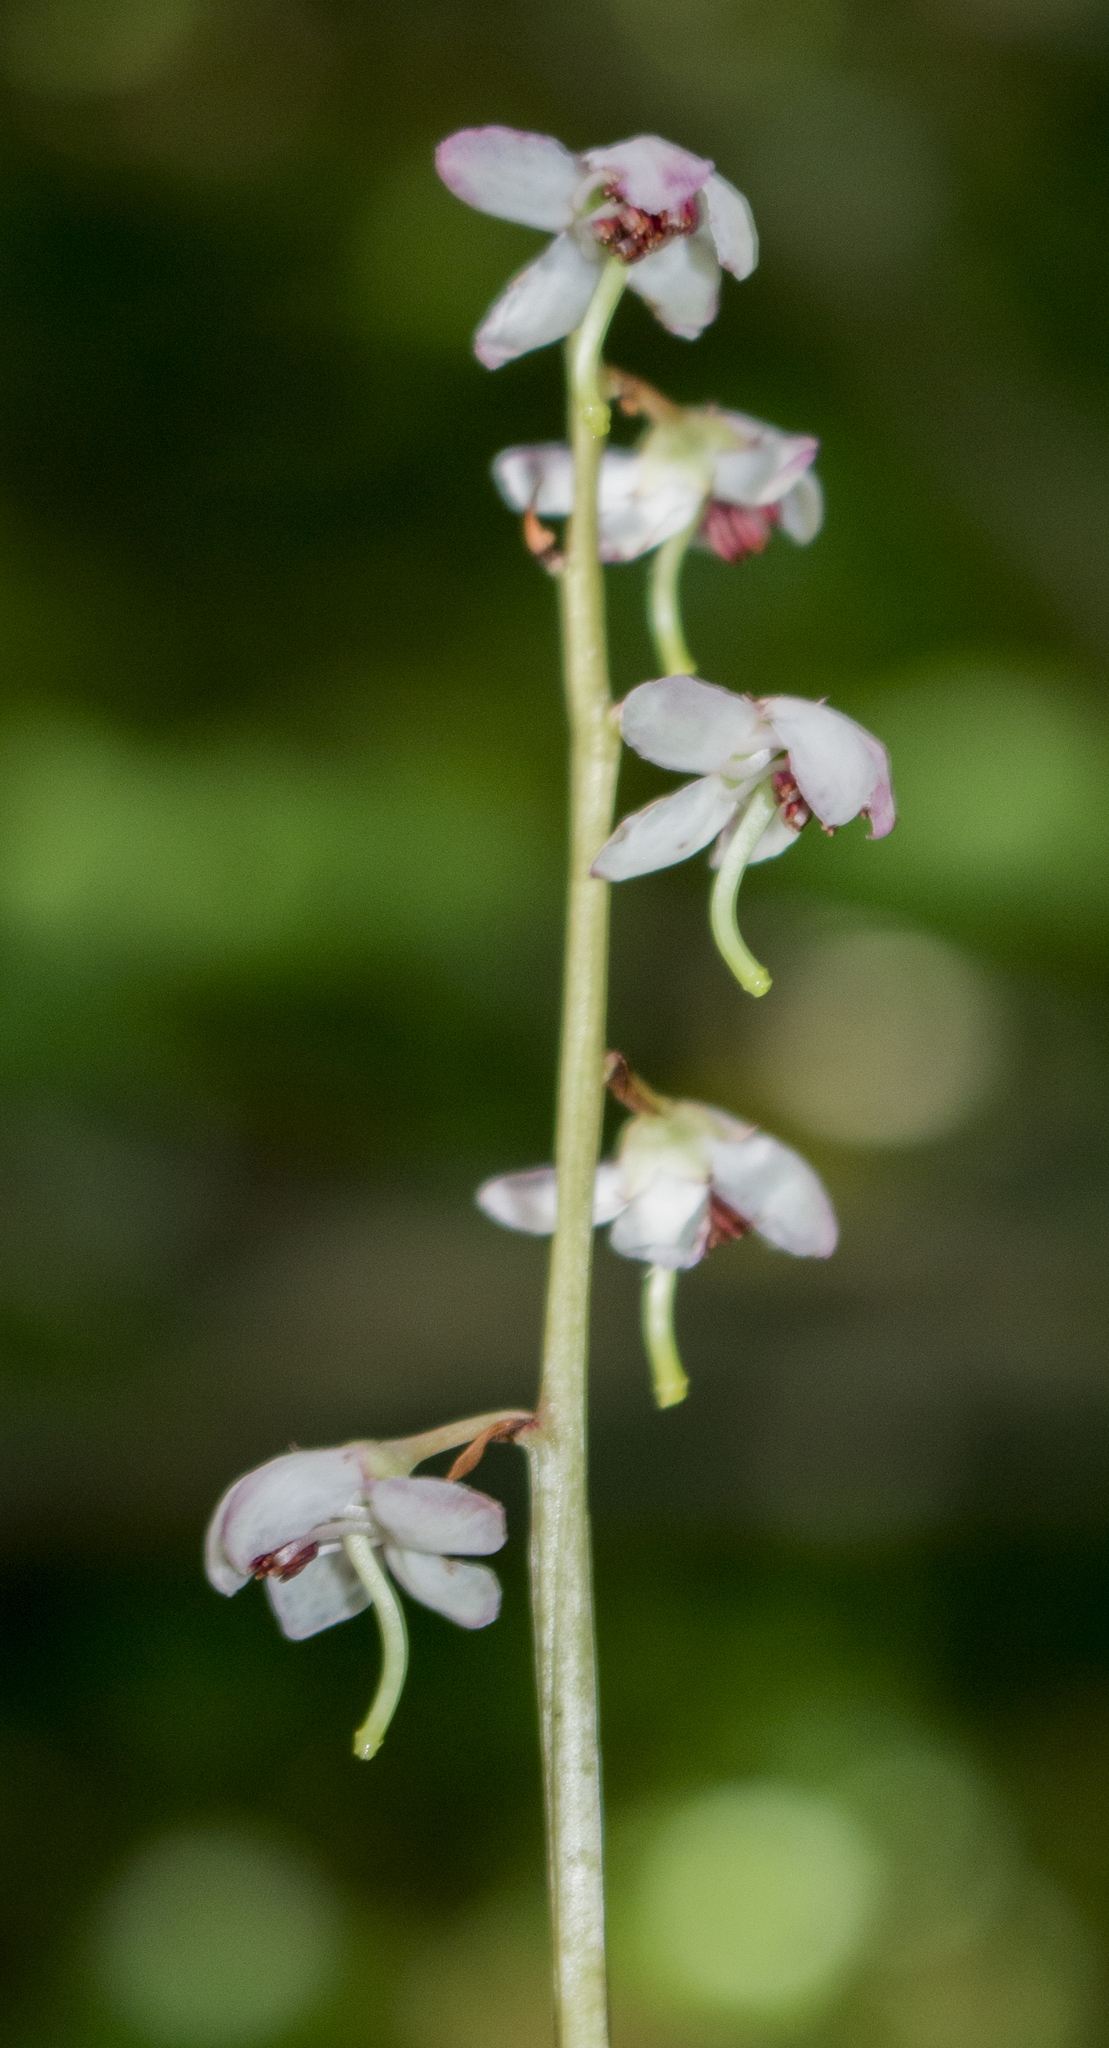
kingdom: Plantae
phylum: Tracheophyta
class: Magnoliopsida
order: Ericales
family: Ericaceae
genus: Pyrola
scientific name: Pyrola asarifolia
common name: Bog wintergreen
